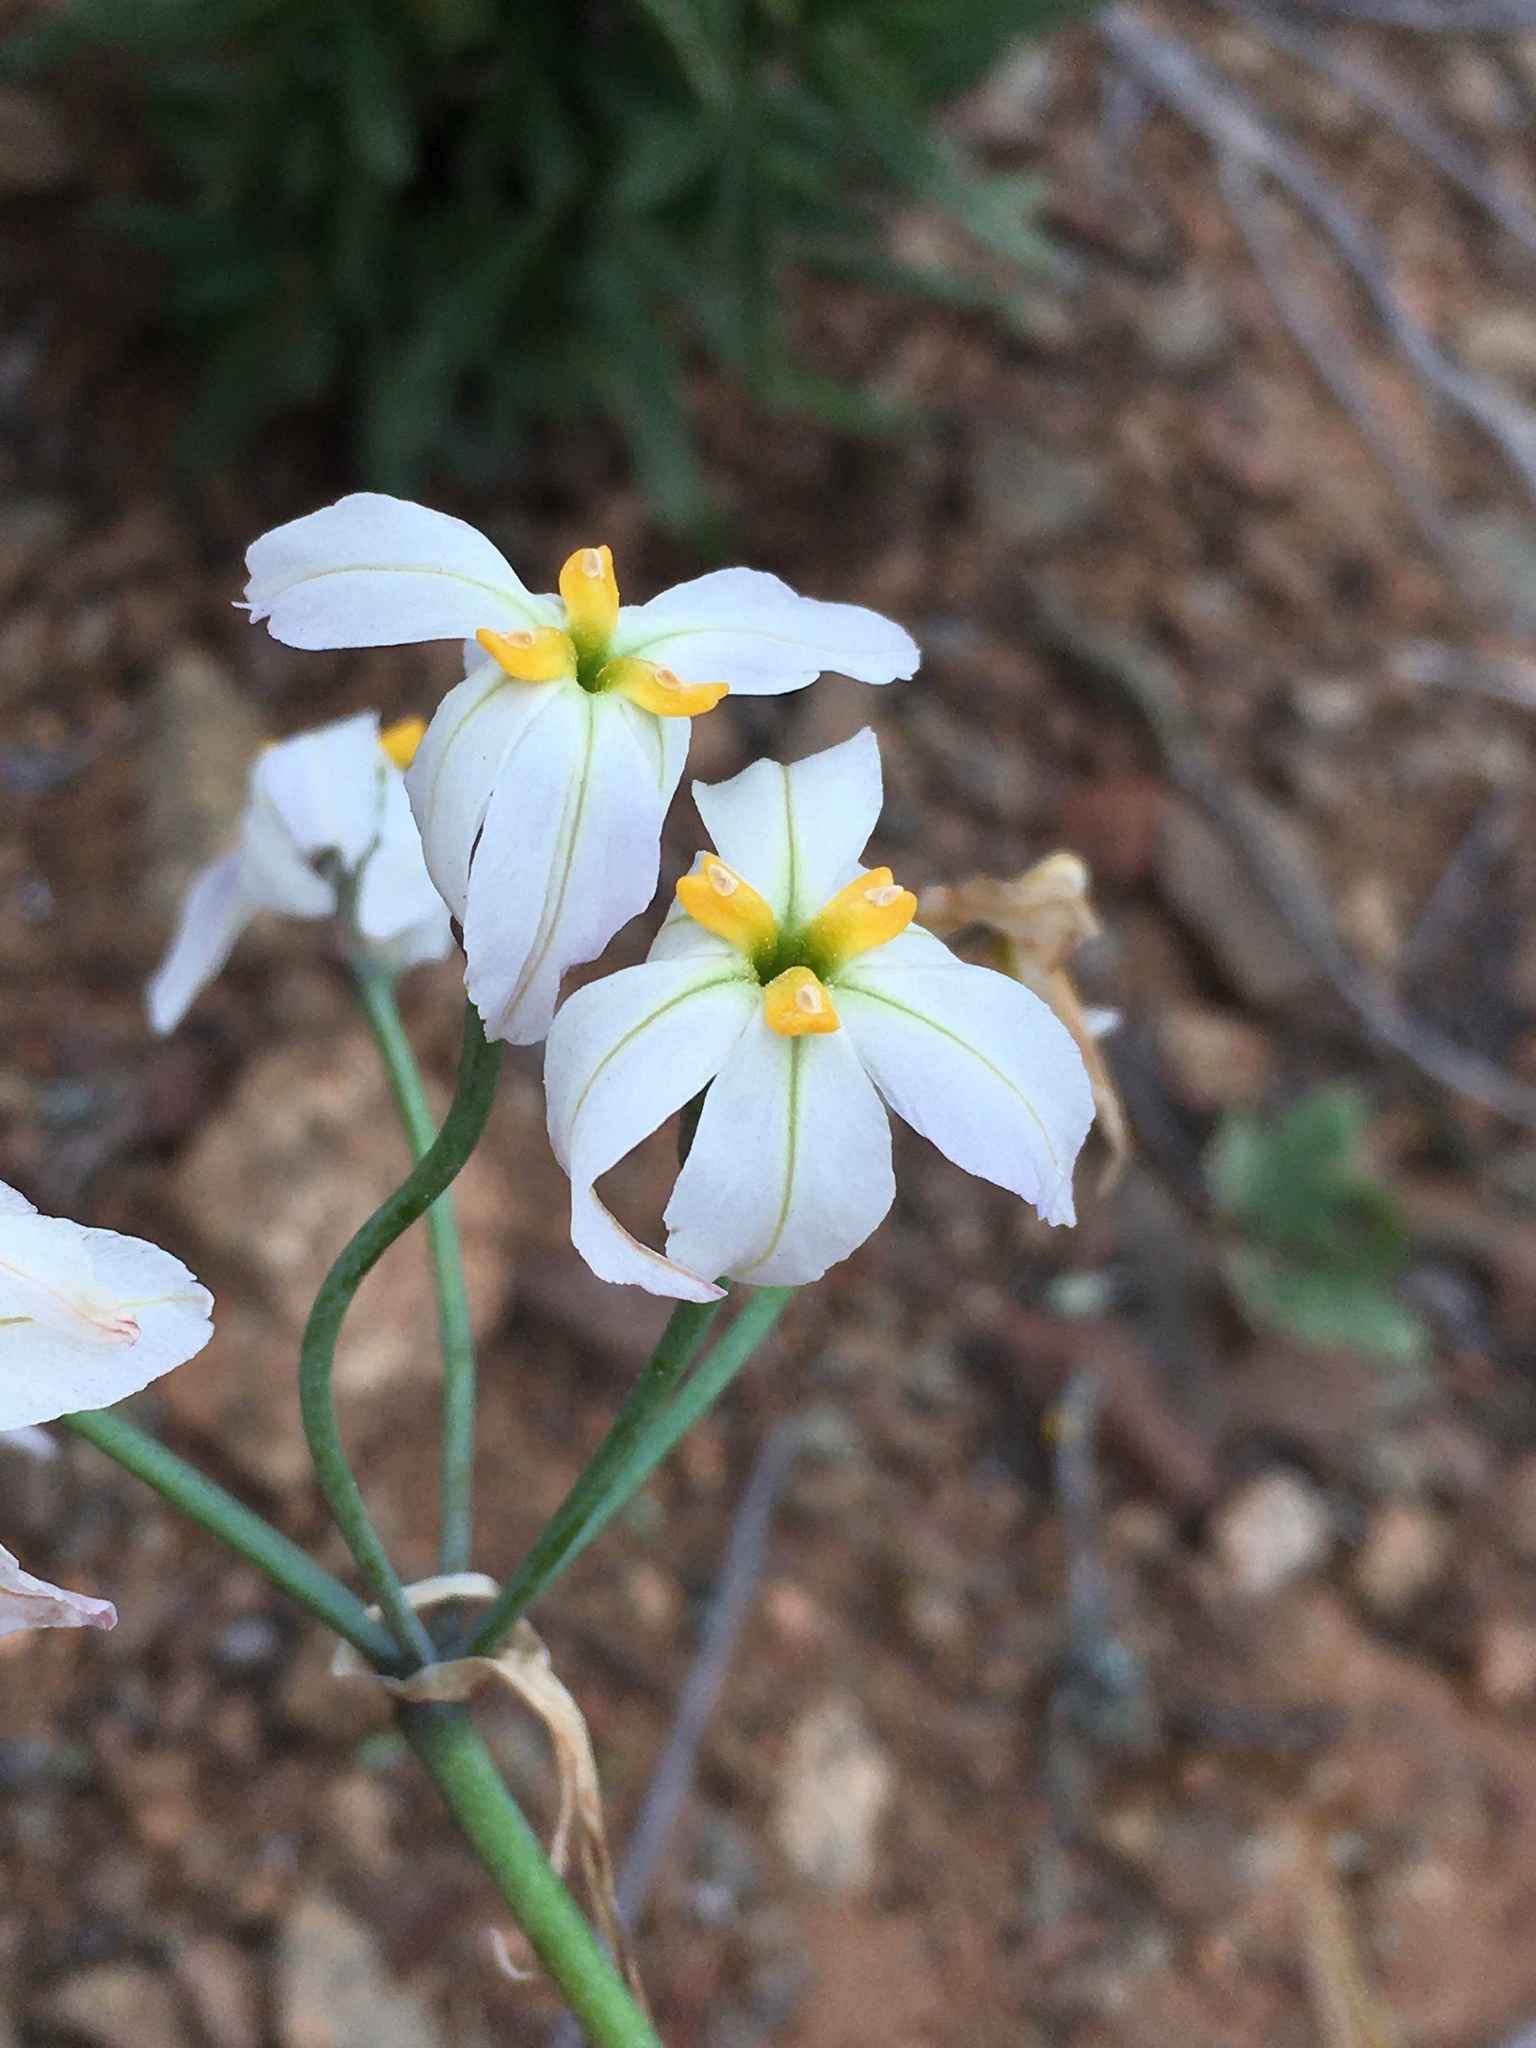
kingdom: Plantae
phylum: Tracheophyta
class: Liliopsida
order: Asparagales
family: Amaryllidaceae
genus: Leucocoryne
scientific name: Leucocoryne appendiculata
